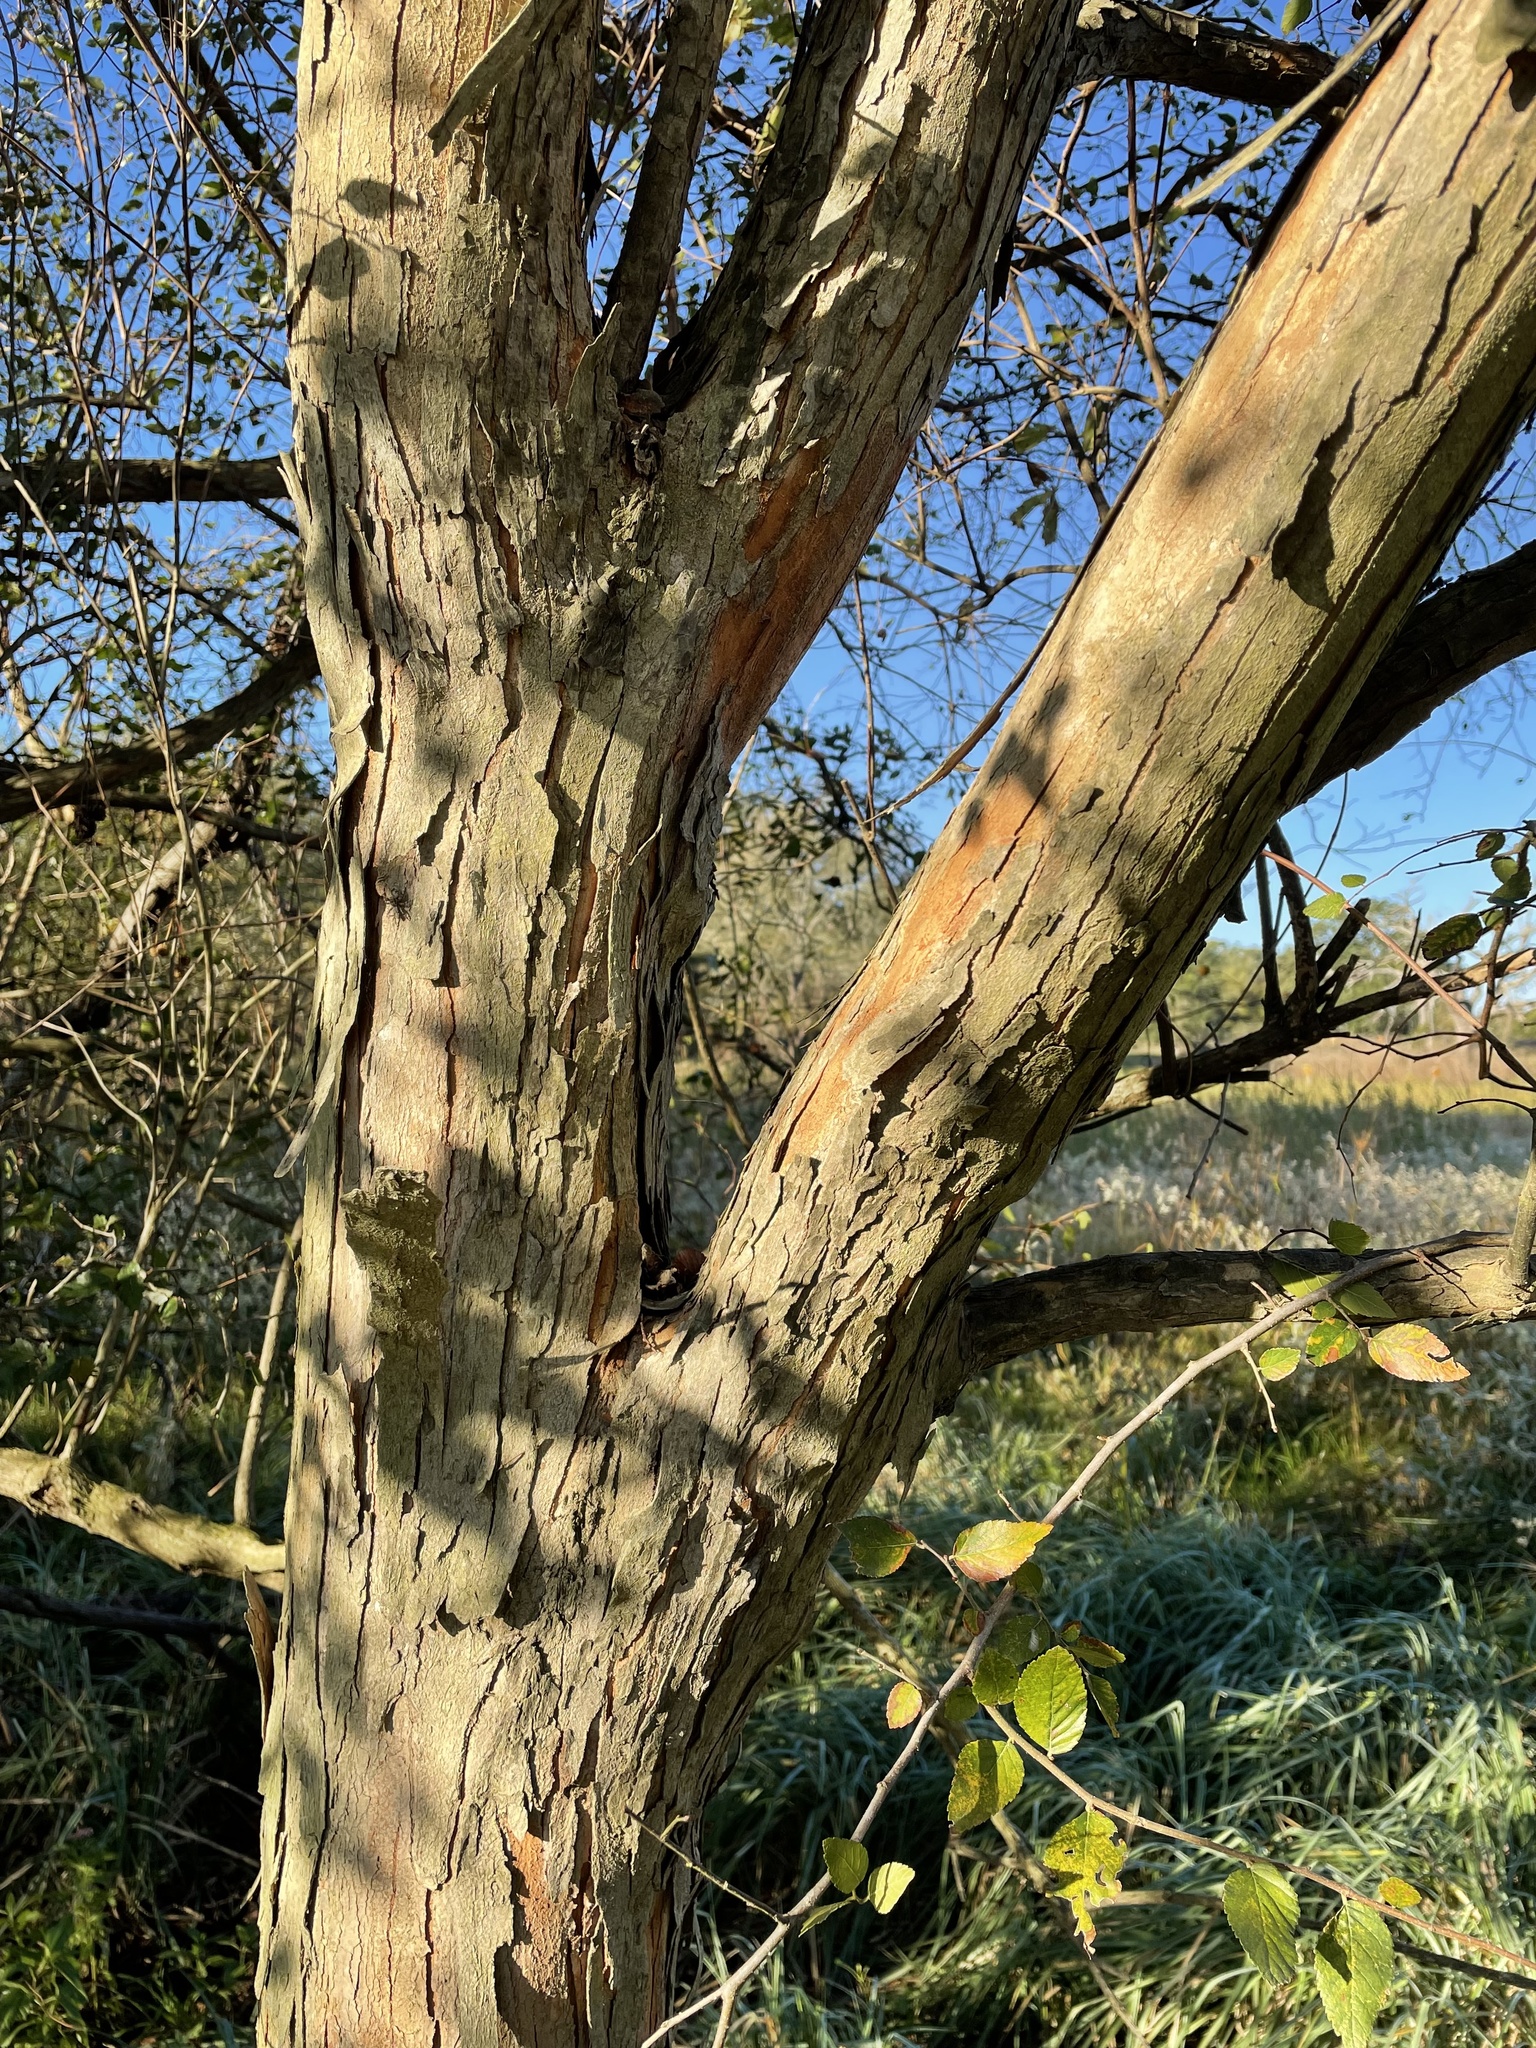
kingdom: Plantae
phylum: Tracheophyta
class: Magnoliopsida
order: Rosales
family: Ulmaceae
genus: Planera
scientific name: Planera aquatica
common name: Water-elm
